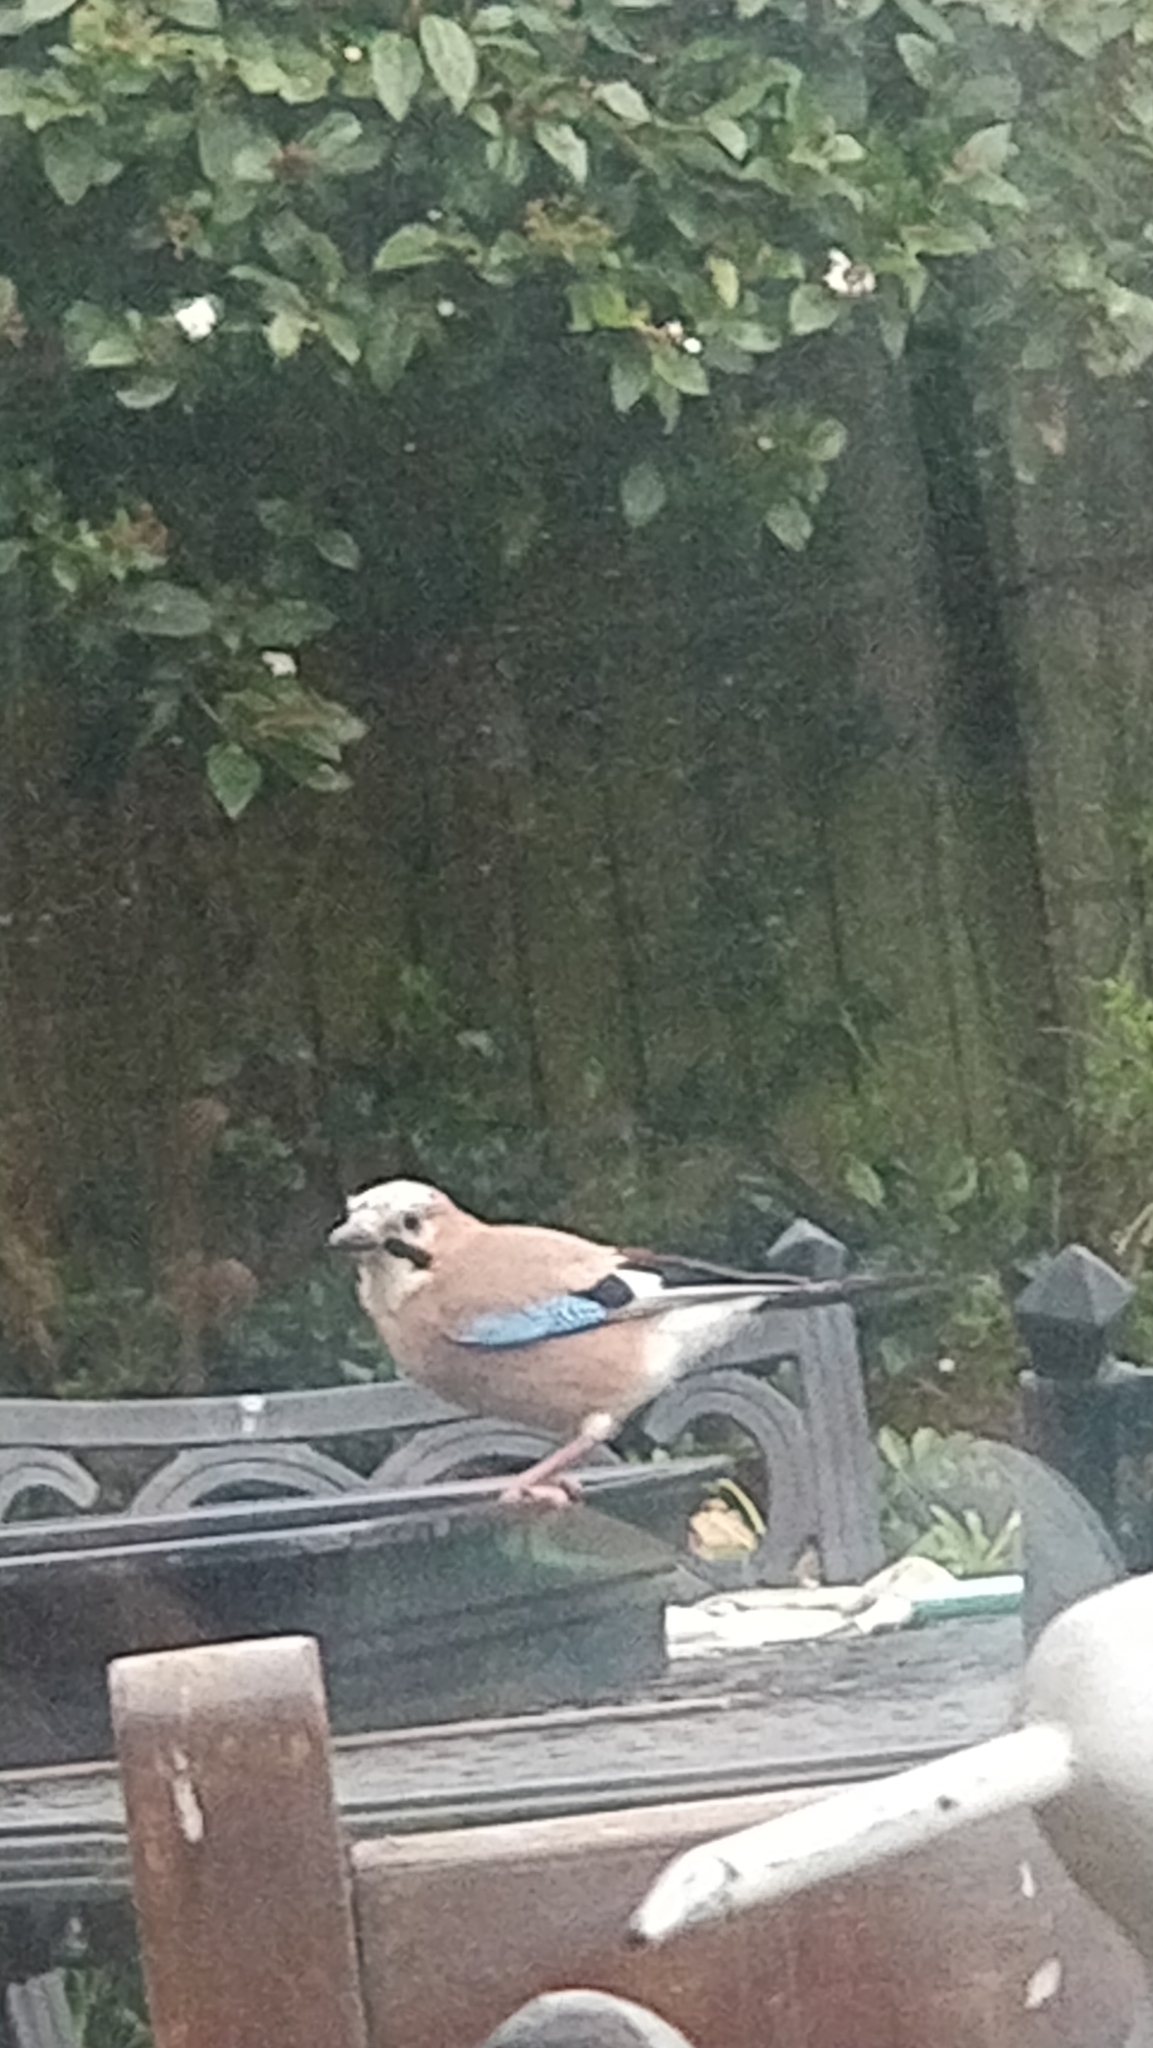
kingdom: Animalia
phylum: Chordata
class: Aves
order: Passeriformes
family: Corvidae
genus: Garrulus
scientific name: Garrulus glandarius
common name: Eurasian jay
